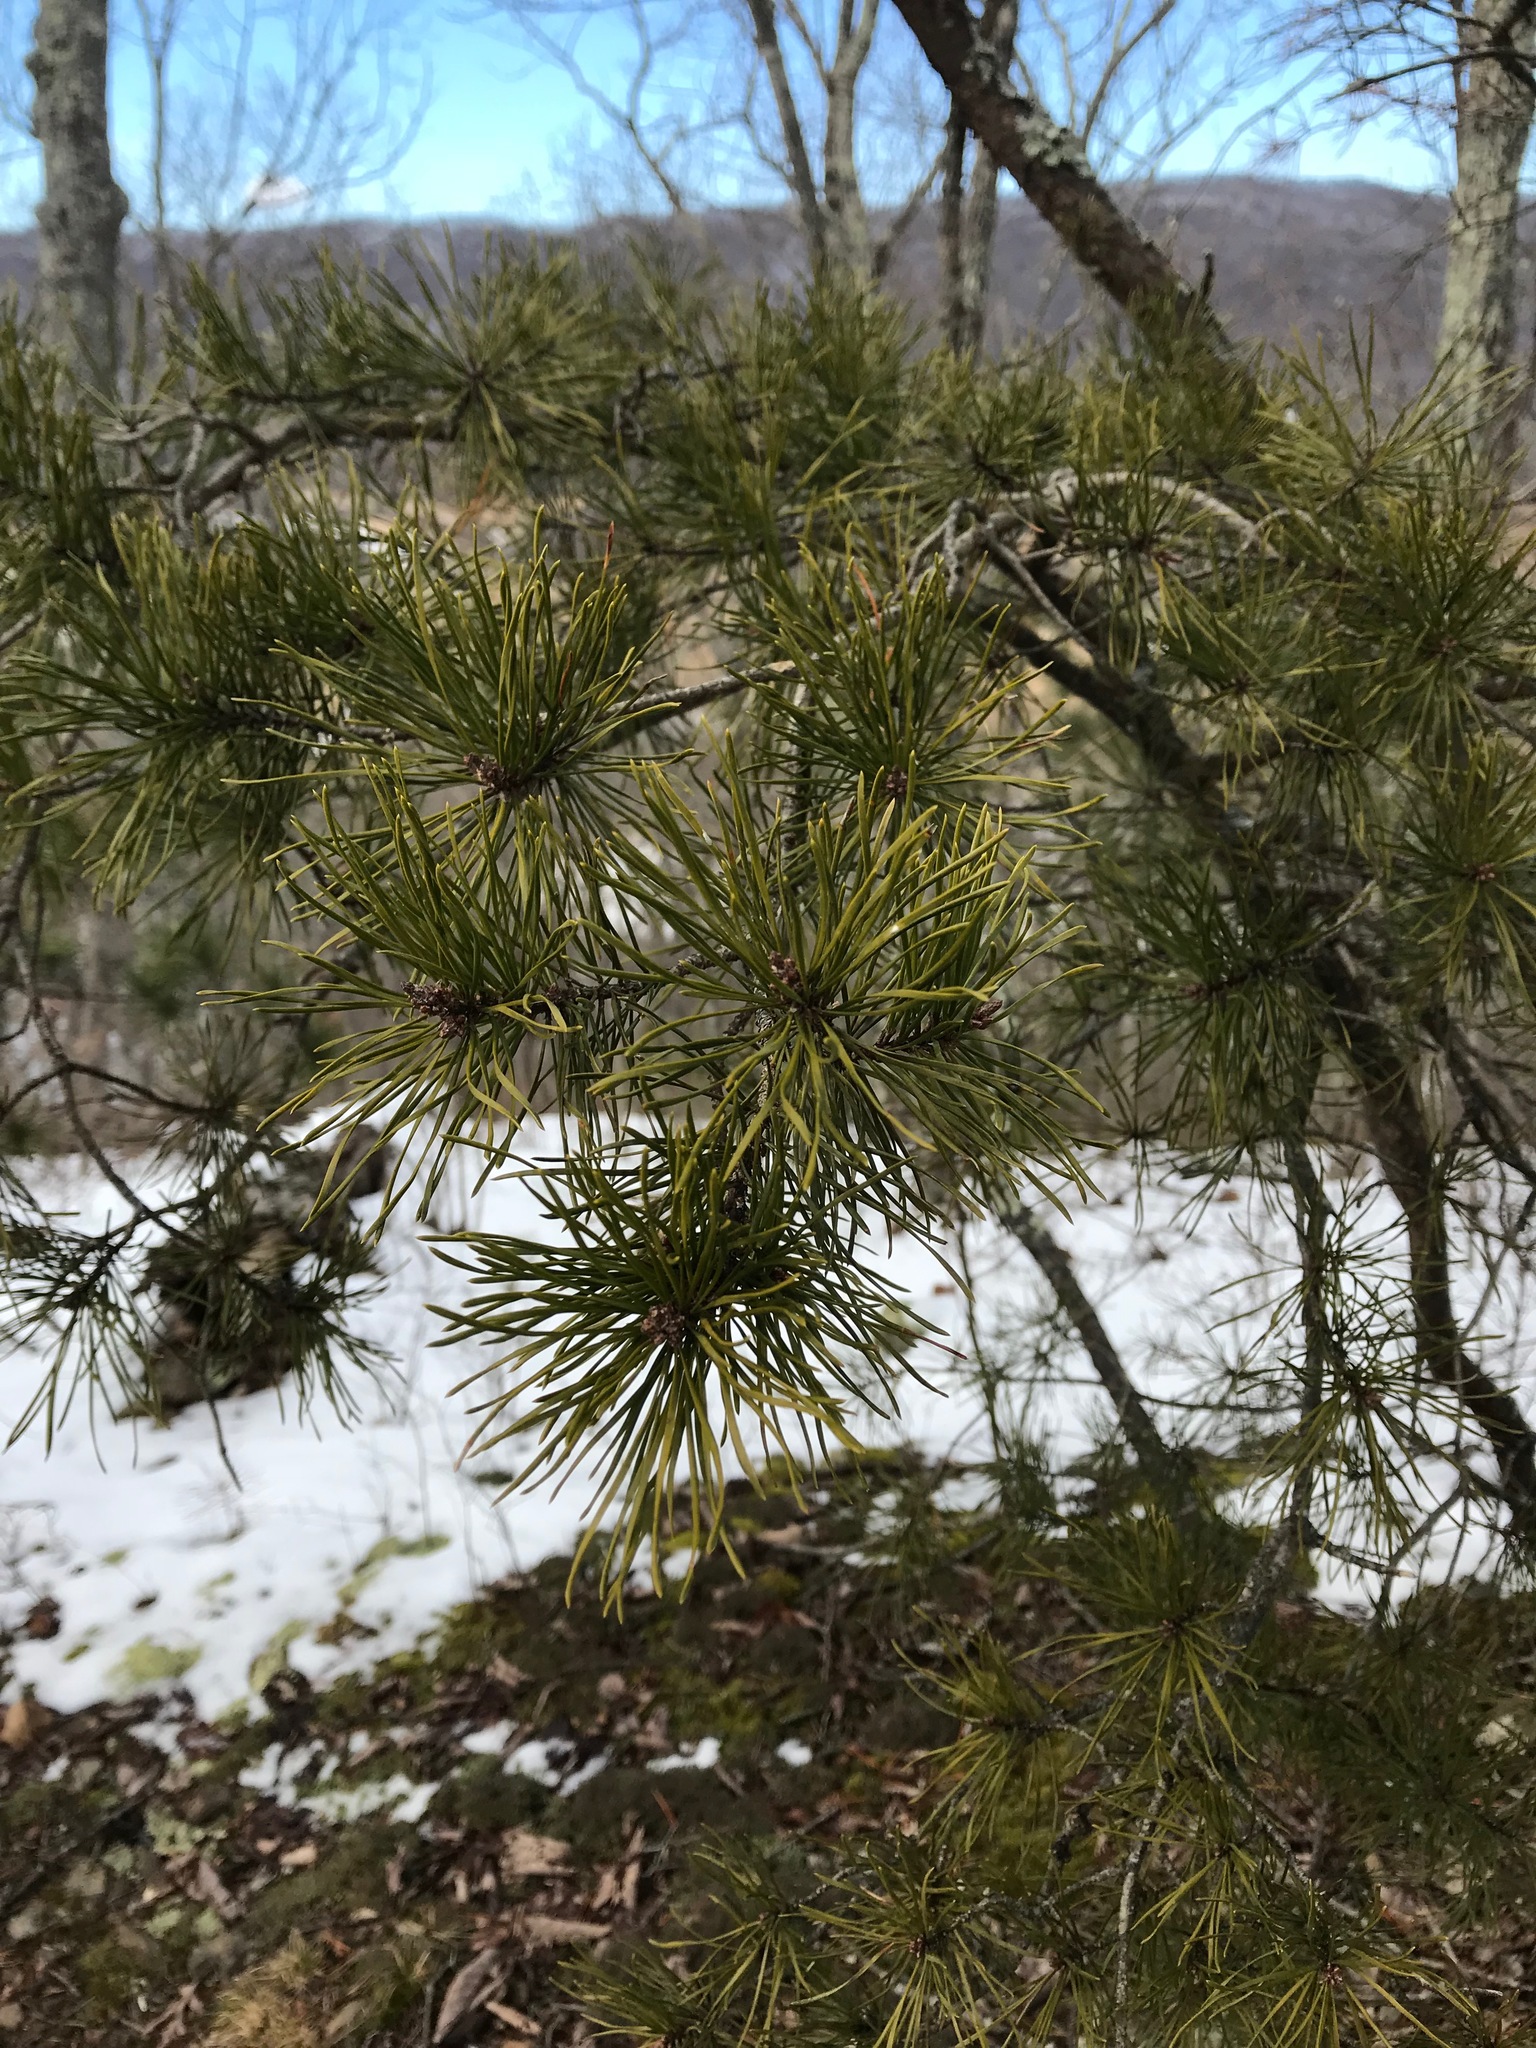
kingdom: Plantae
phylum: Tracheophyta
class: Pinopsida
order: Pinales
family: Pinaceae
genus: Pinus
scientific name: Pinus virginiana
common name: Scrub pine
